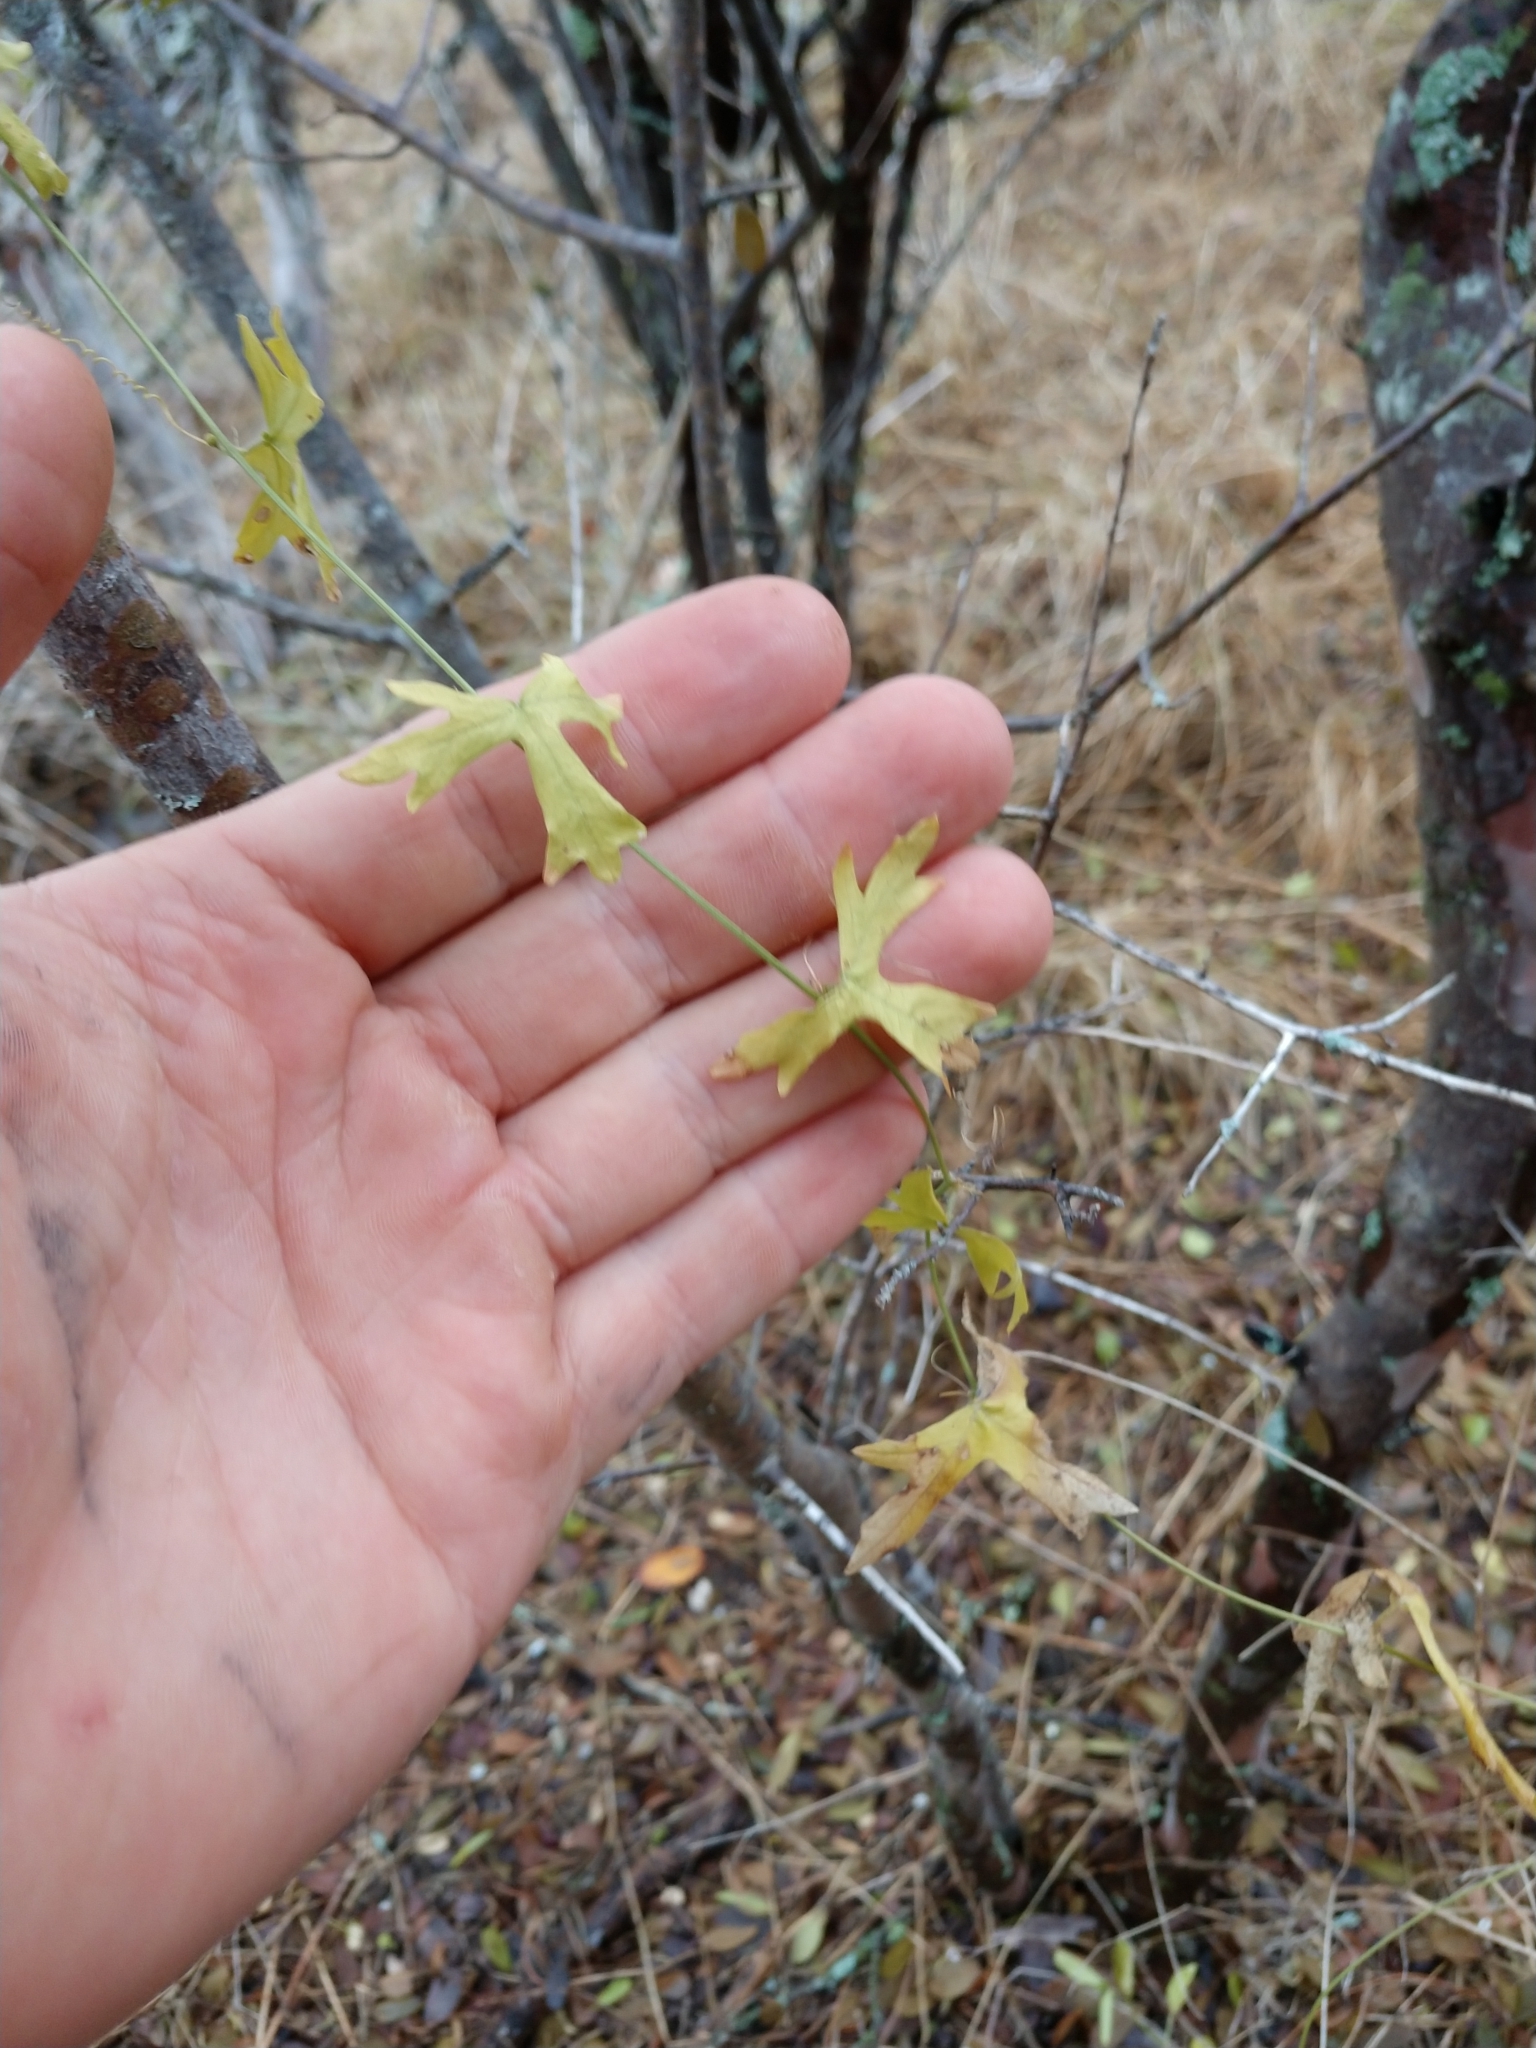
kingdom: Plantae
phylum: Tracheophyta
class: Magnoliopsida
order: Malpighiales
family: Passifloraceae
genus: Passiflora
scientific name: Passiflora tenuiloba
